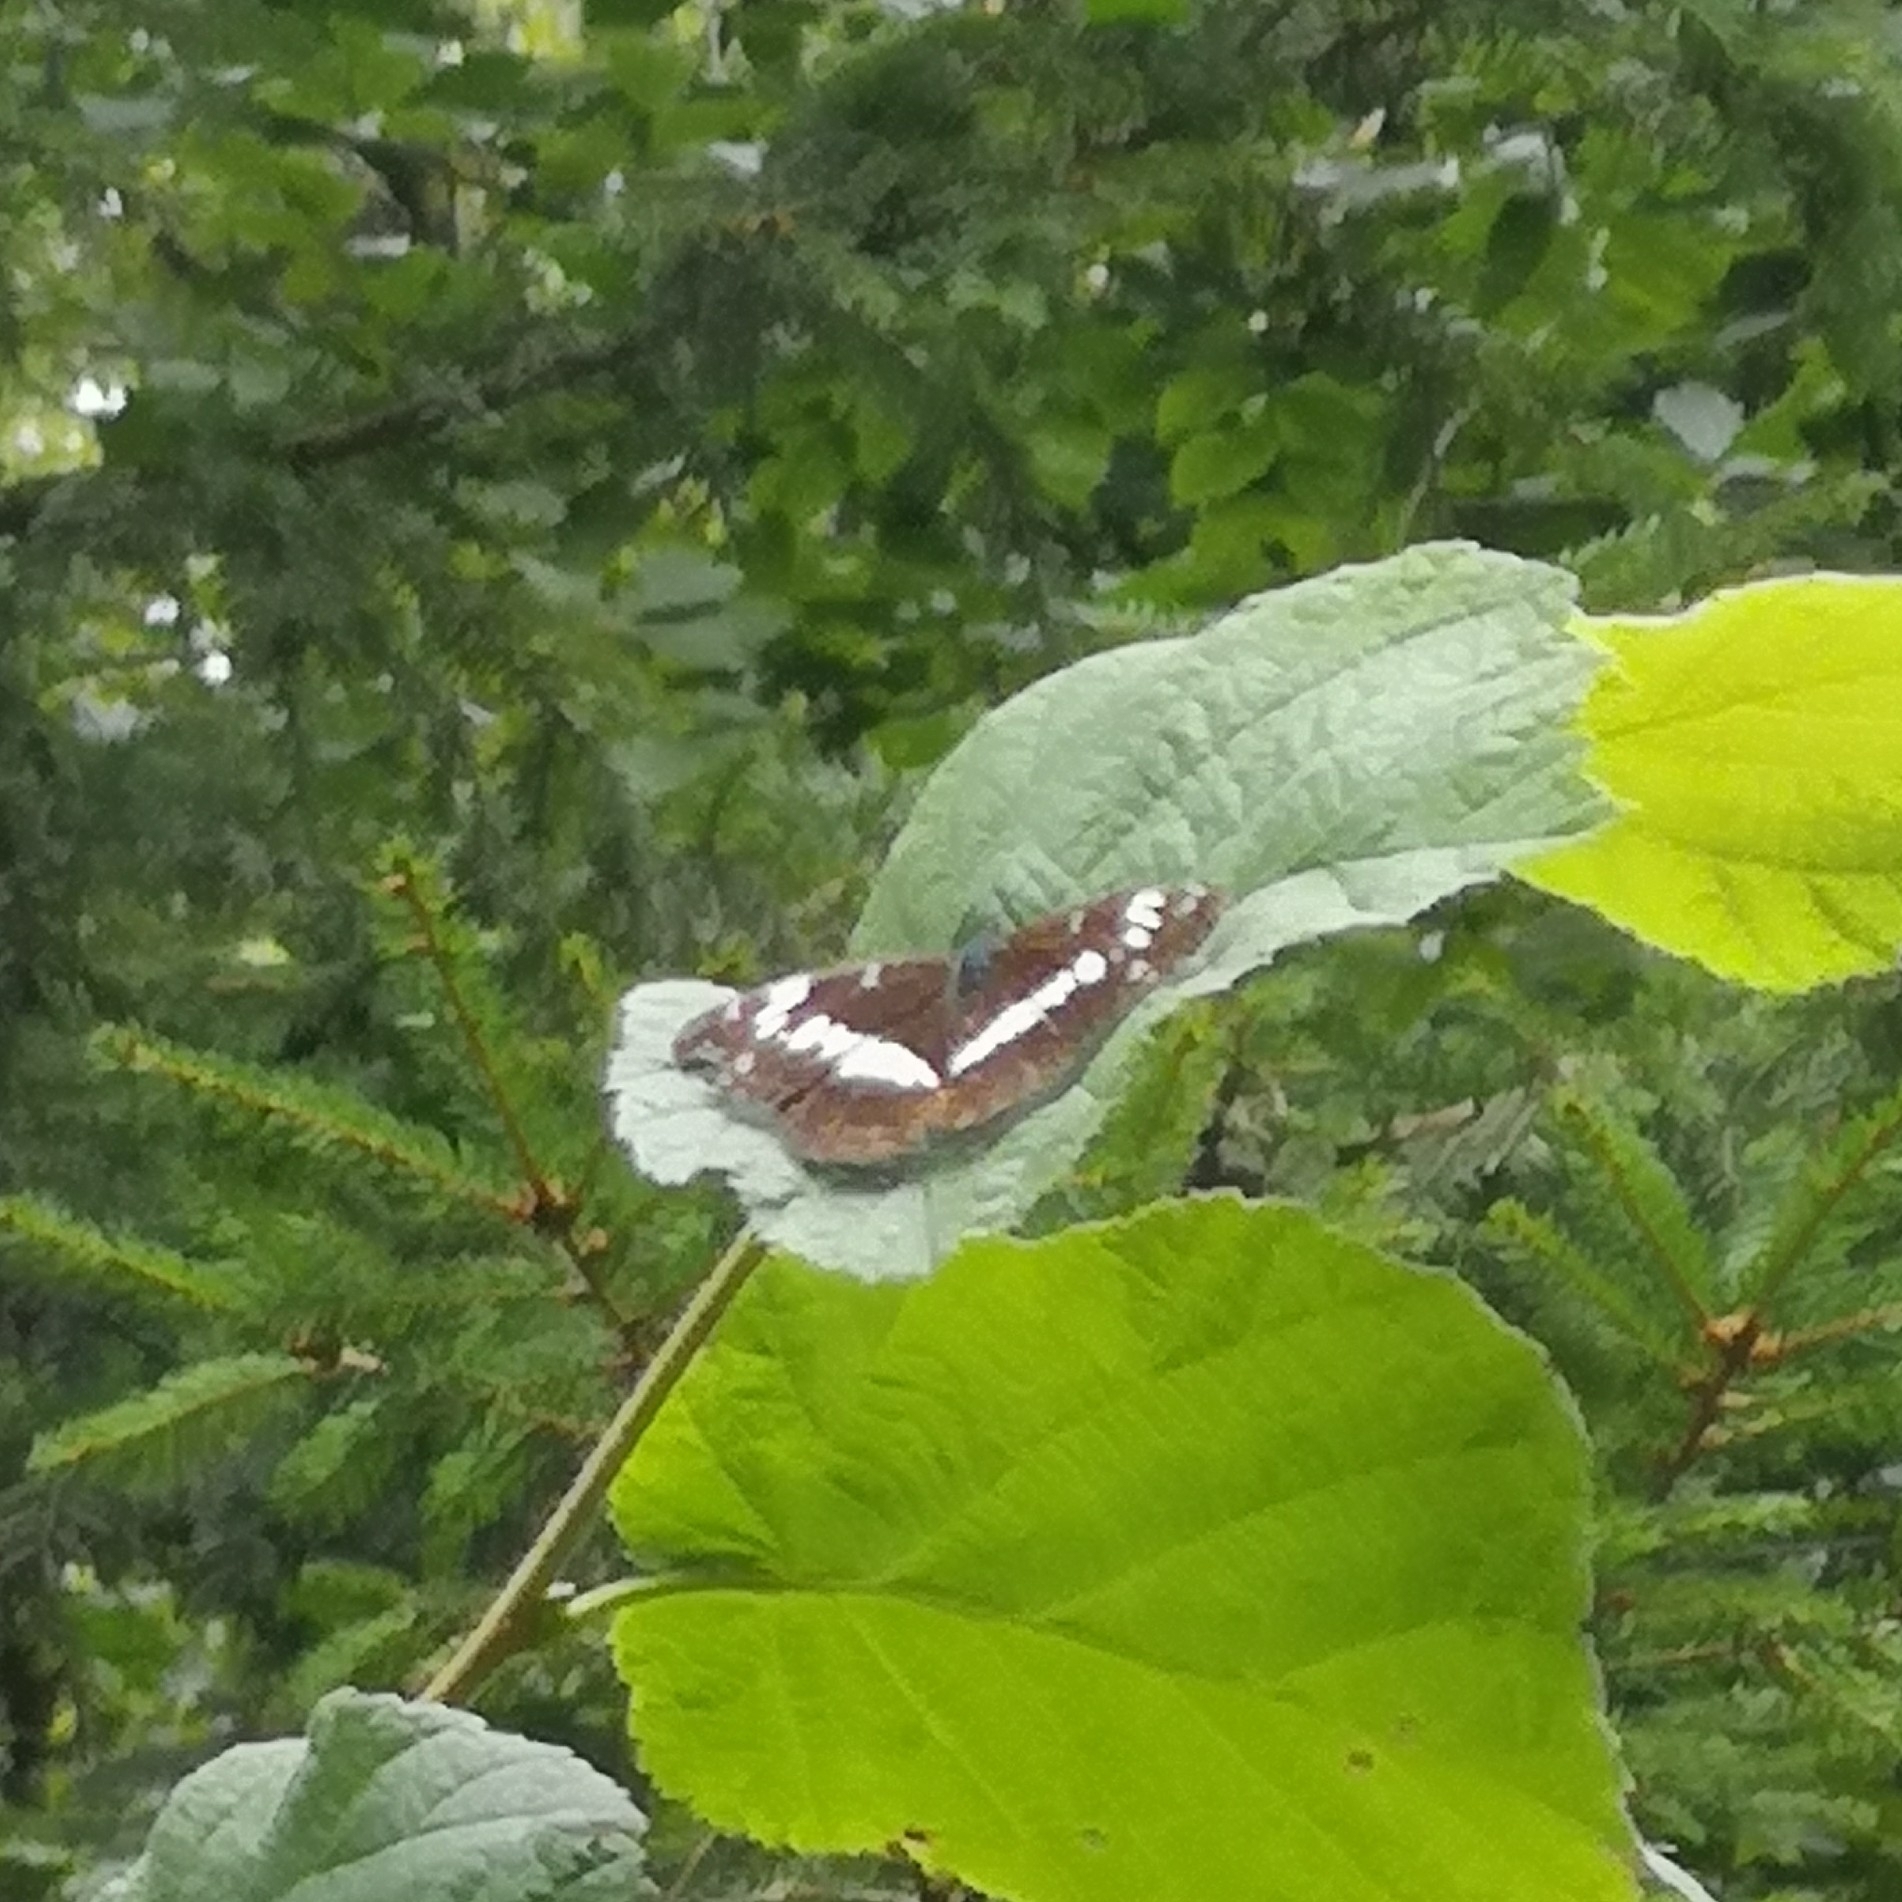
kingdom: Animalia
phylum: Arthropoda
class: Insecta
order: Lepidoptera
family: Nymphalidae
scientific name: Nymphalidae
